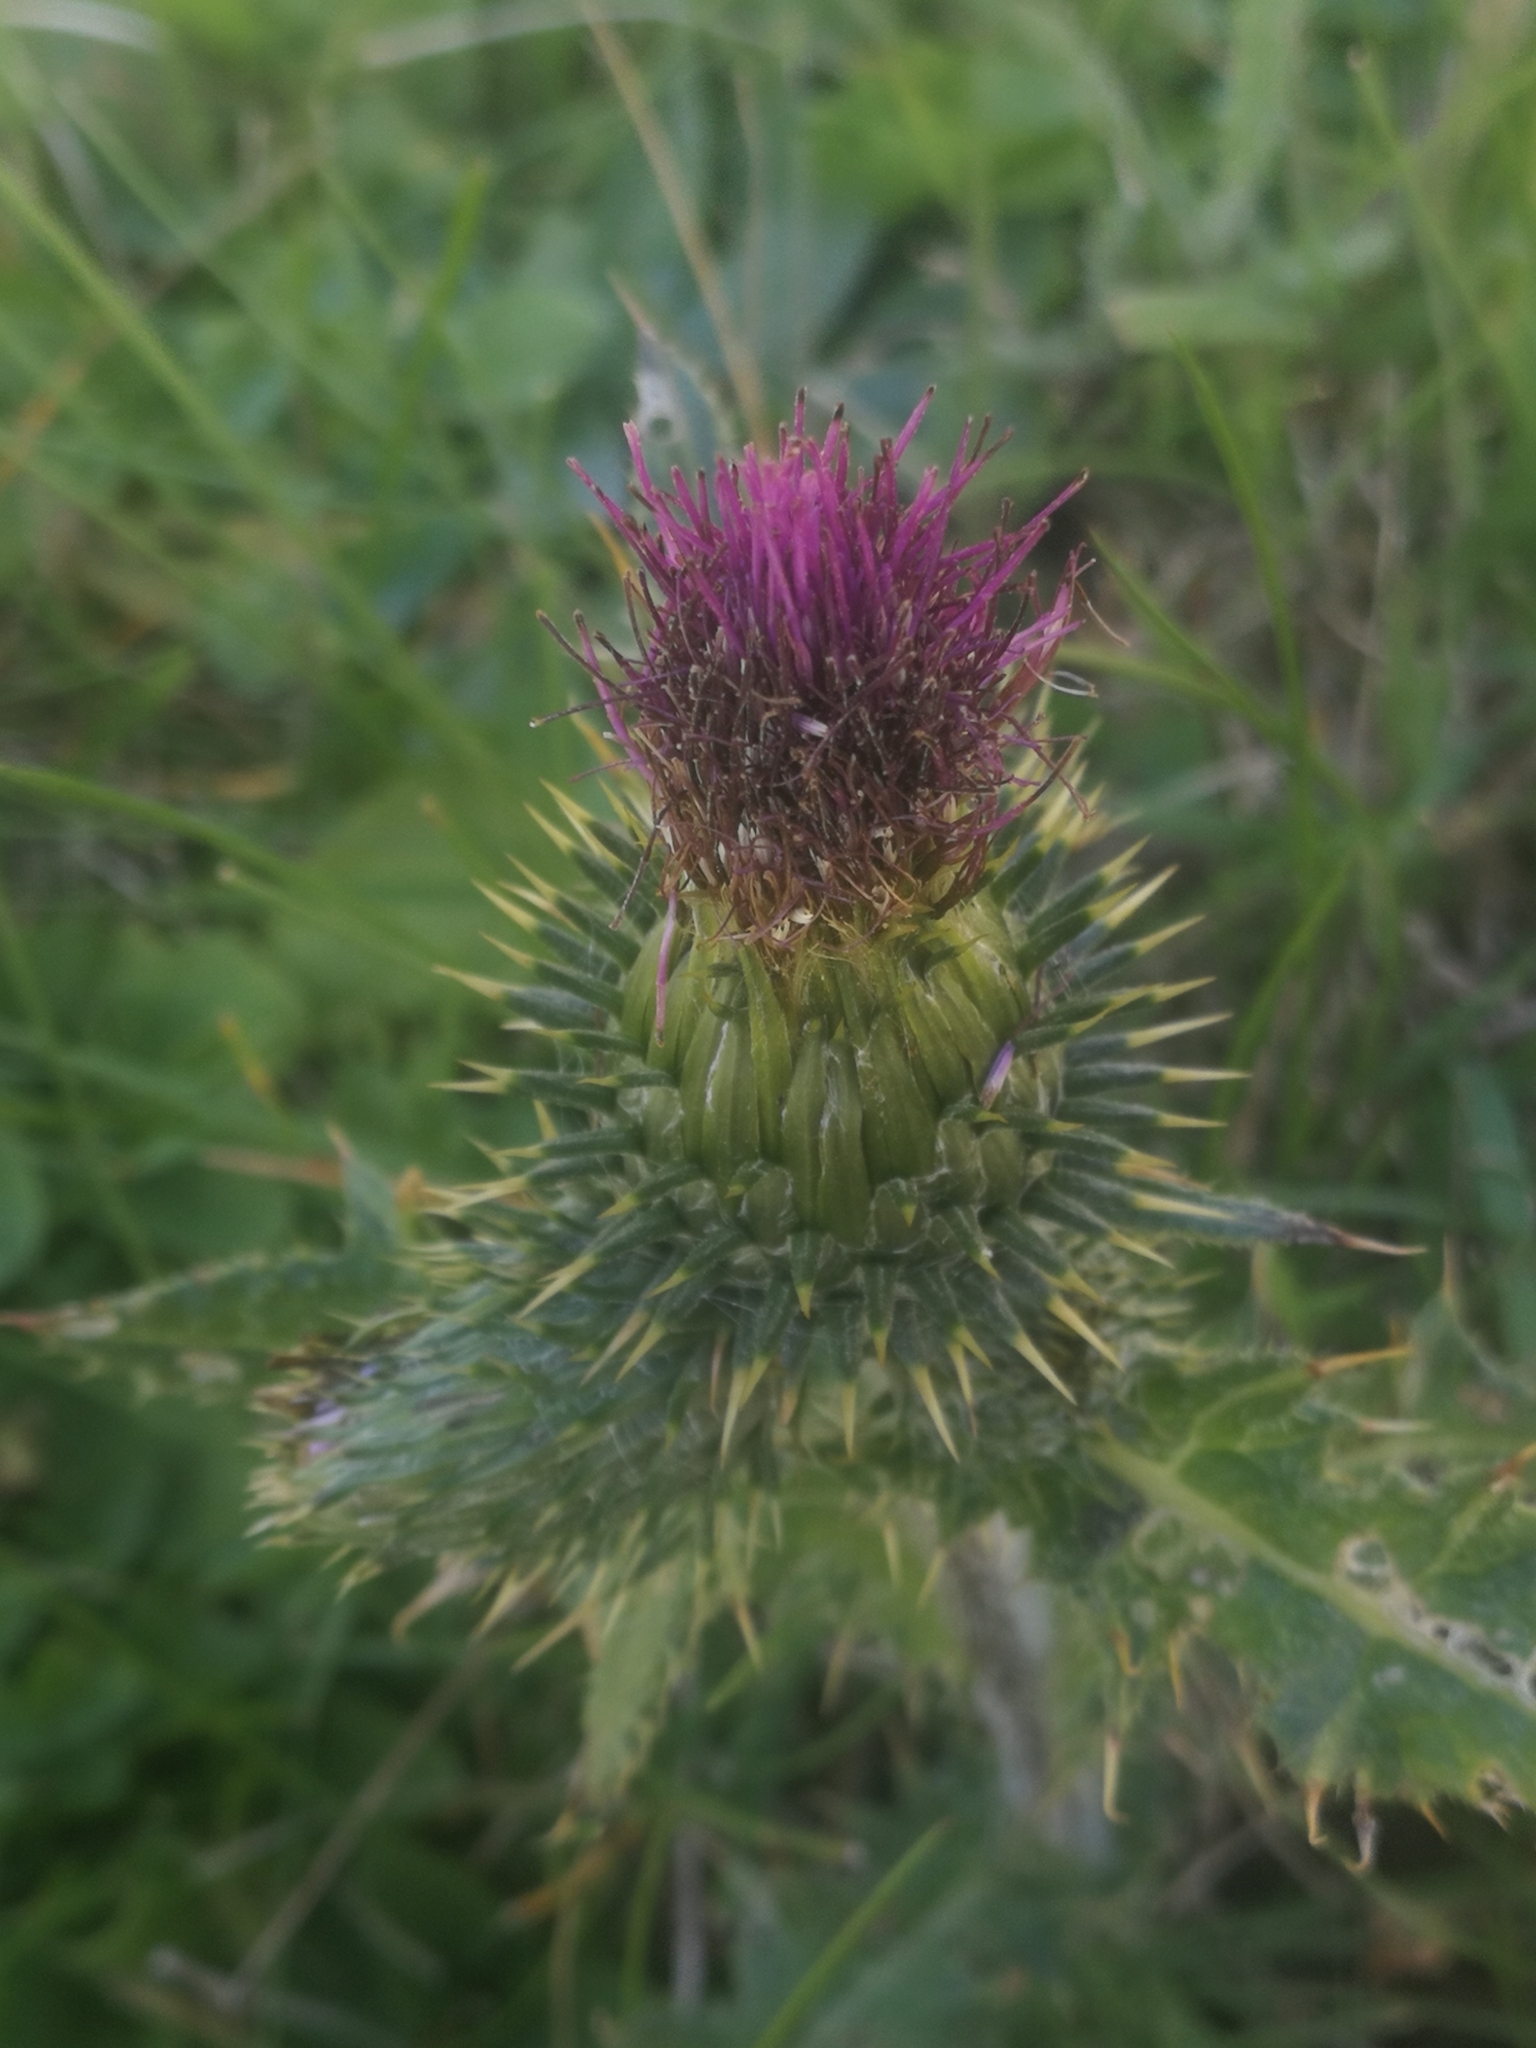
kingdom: Plantae
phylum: Tracheophyta
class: Magnoliopsida
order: Asterales
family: Asteraceae
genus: Cirsium
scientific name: Cirsium vulgare
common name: Bull thistle
